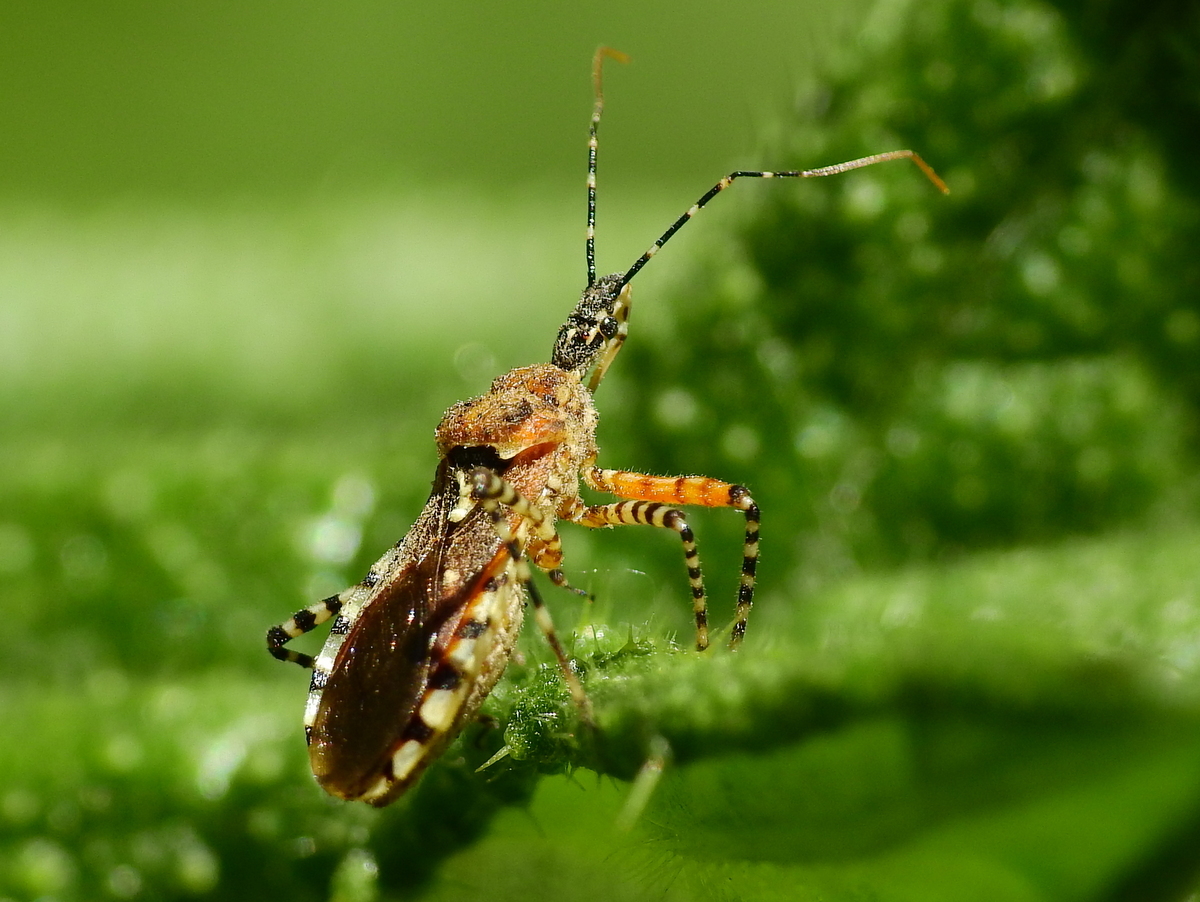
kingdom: Animalia
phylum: Arthropoda
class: Insecta
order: Hemiptera
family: Reduviidae
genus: Cosmoclopius
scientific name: Cosmoclopius nigroannulatus
